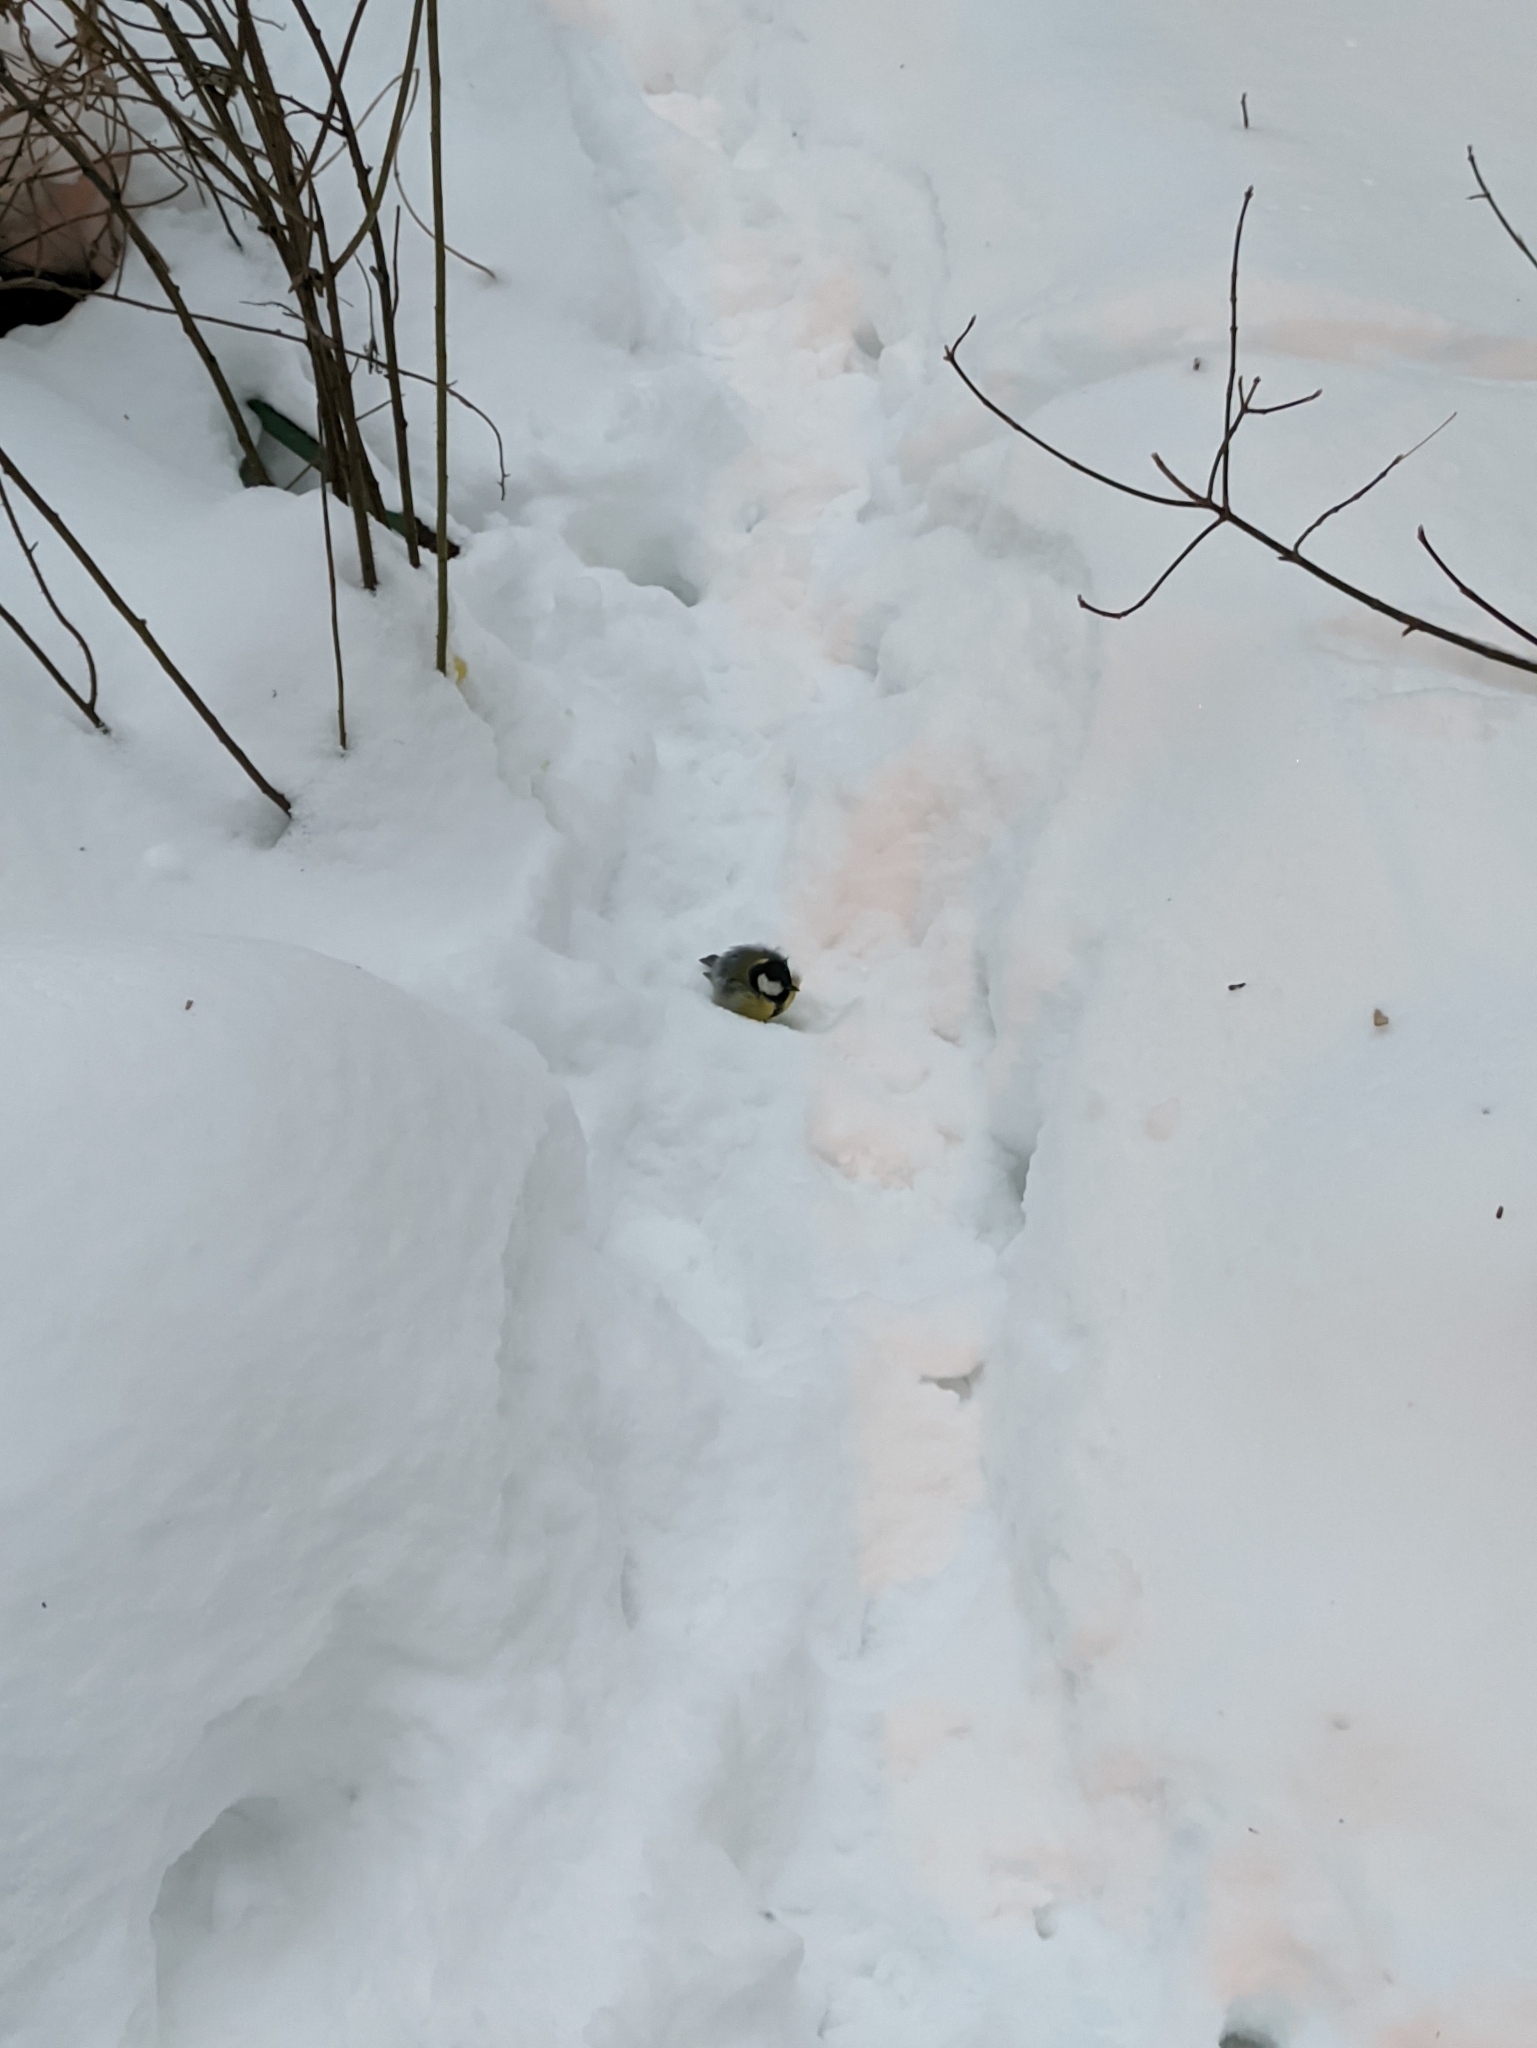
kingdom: Animalia
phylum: Chordata
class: Aves
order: Passeriformes
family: Paridae
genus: Parus
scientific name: Parus major
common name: Great tit
